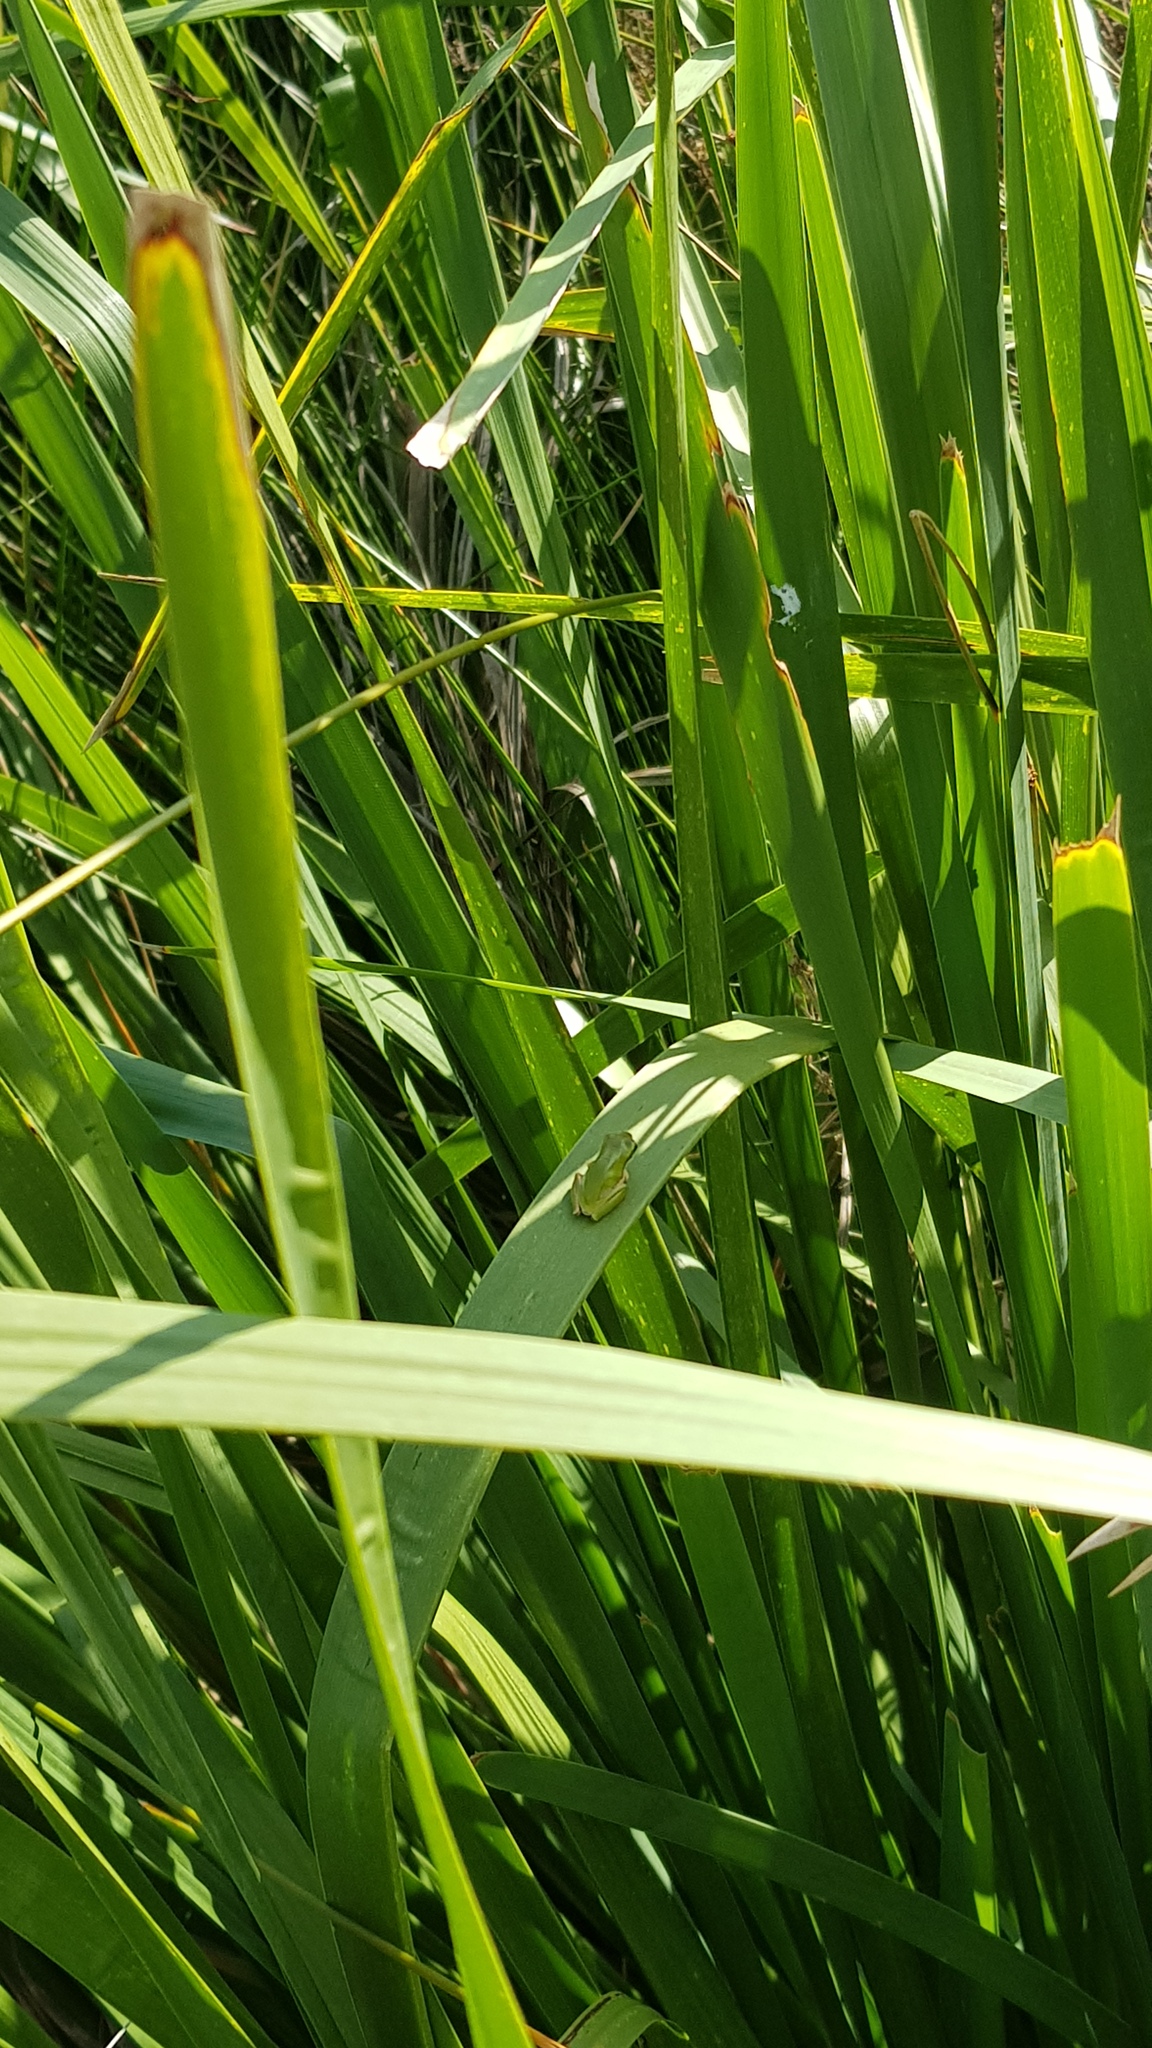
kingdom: Animalia
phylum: Chordata
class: Amphibia
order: Anura
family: Pelodryadidae
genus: Litoria
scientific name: Litoria fallax
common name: Eastern dwarf treefrog
